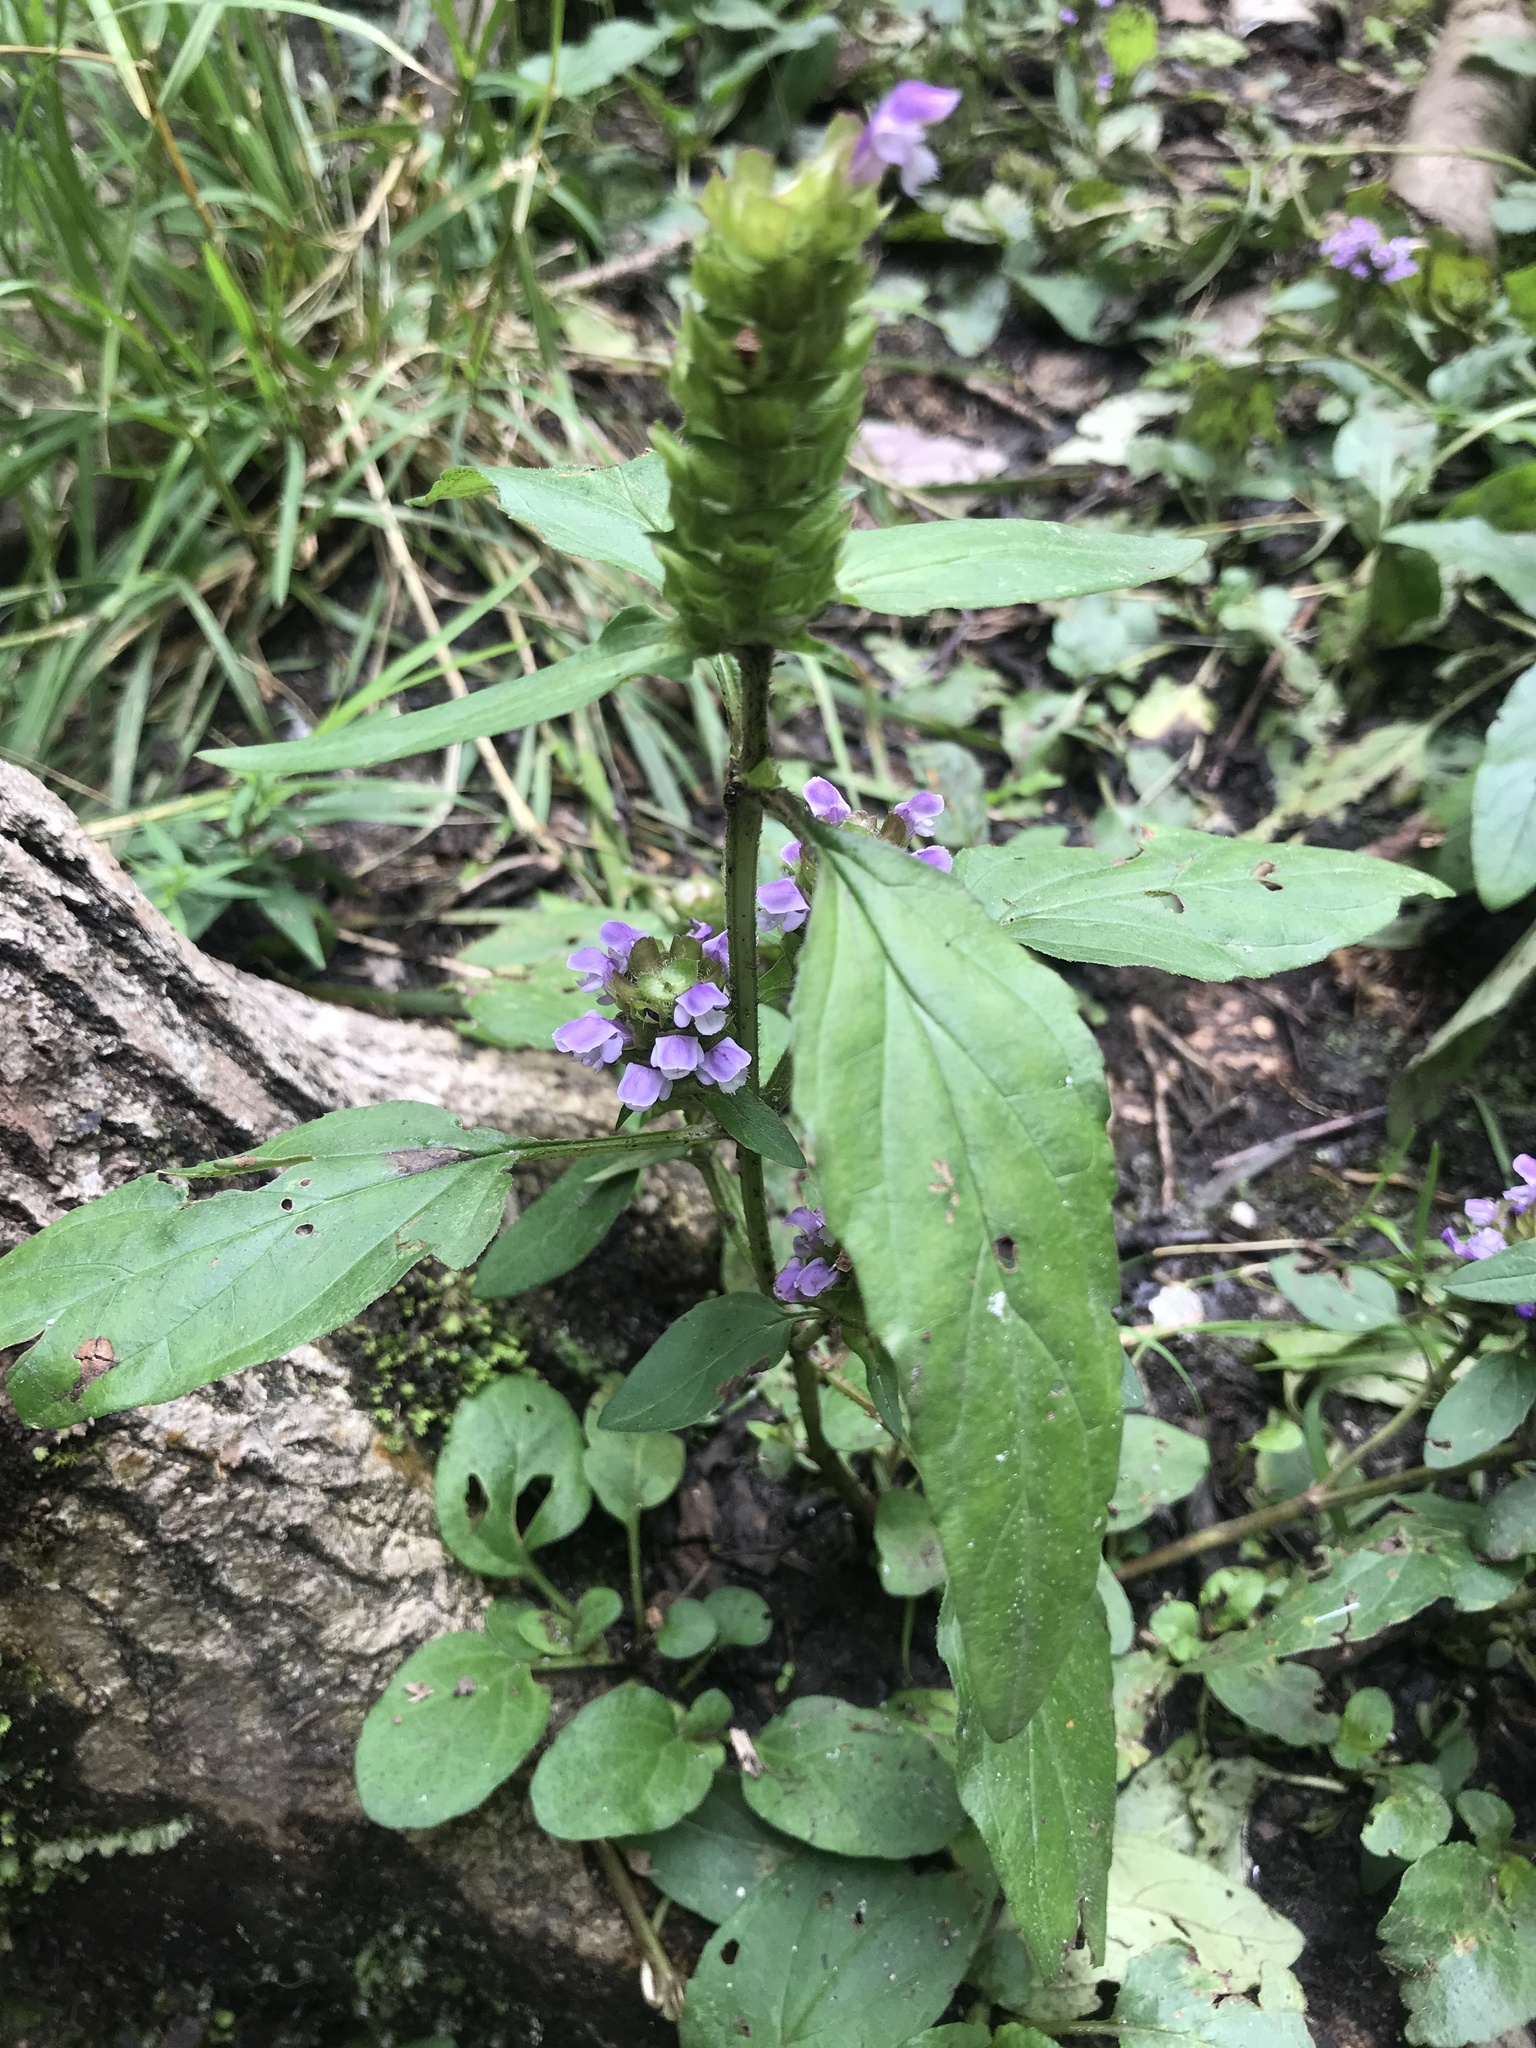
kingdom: Plantae
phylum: Tracheophyta
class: Magnoliopsida
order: Lamiales
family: Lamiaceae
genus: Prunella
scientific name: Prunella vulgaris
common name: Heal-all
